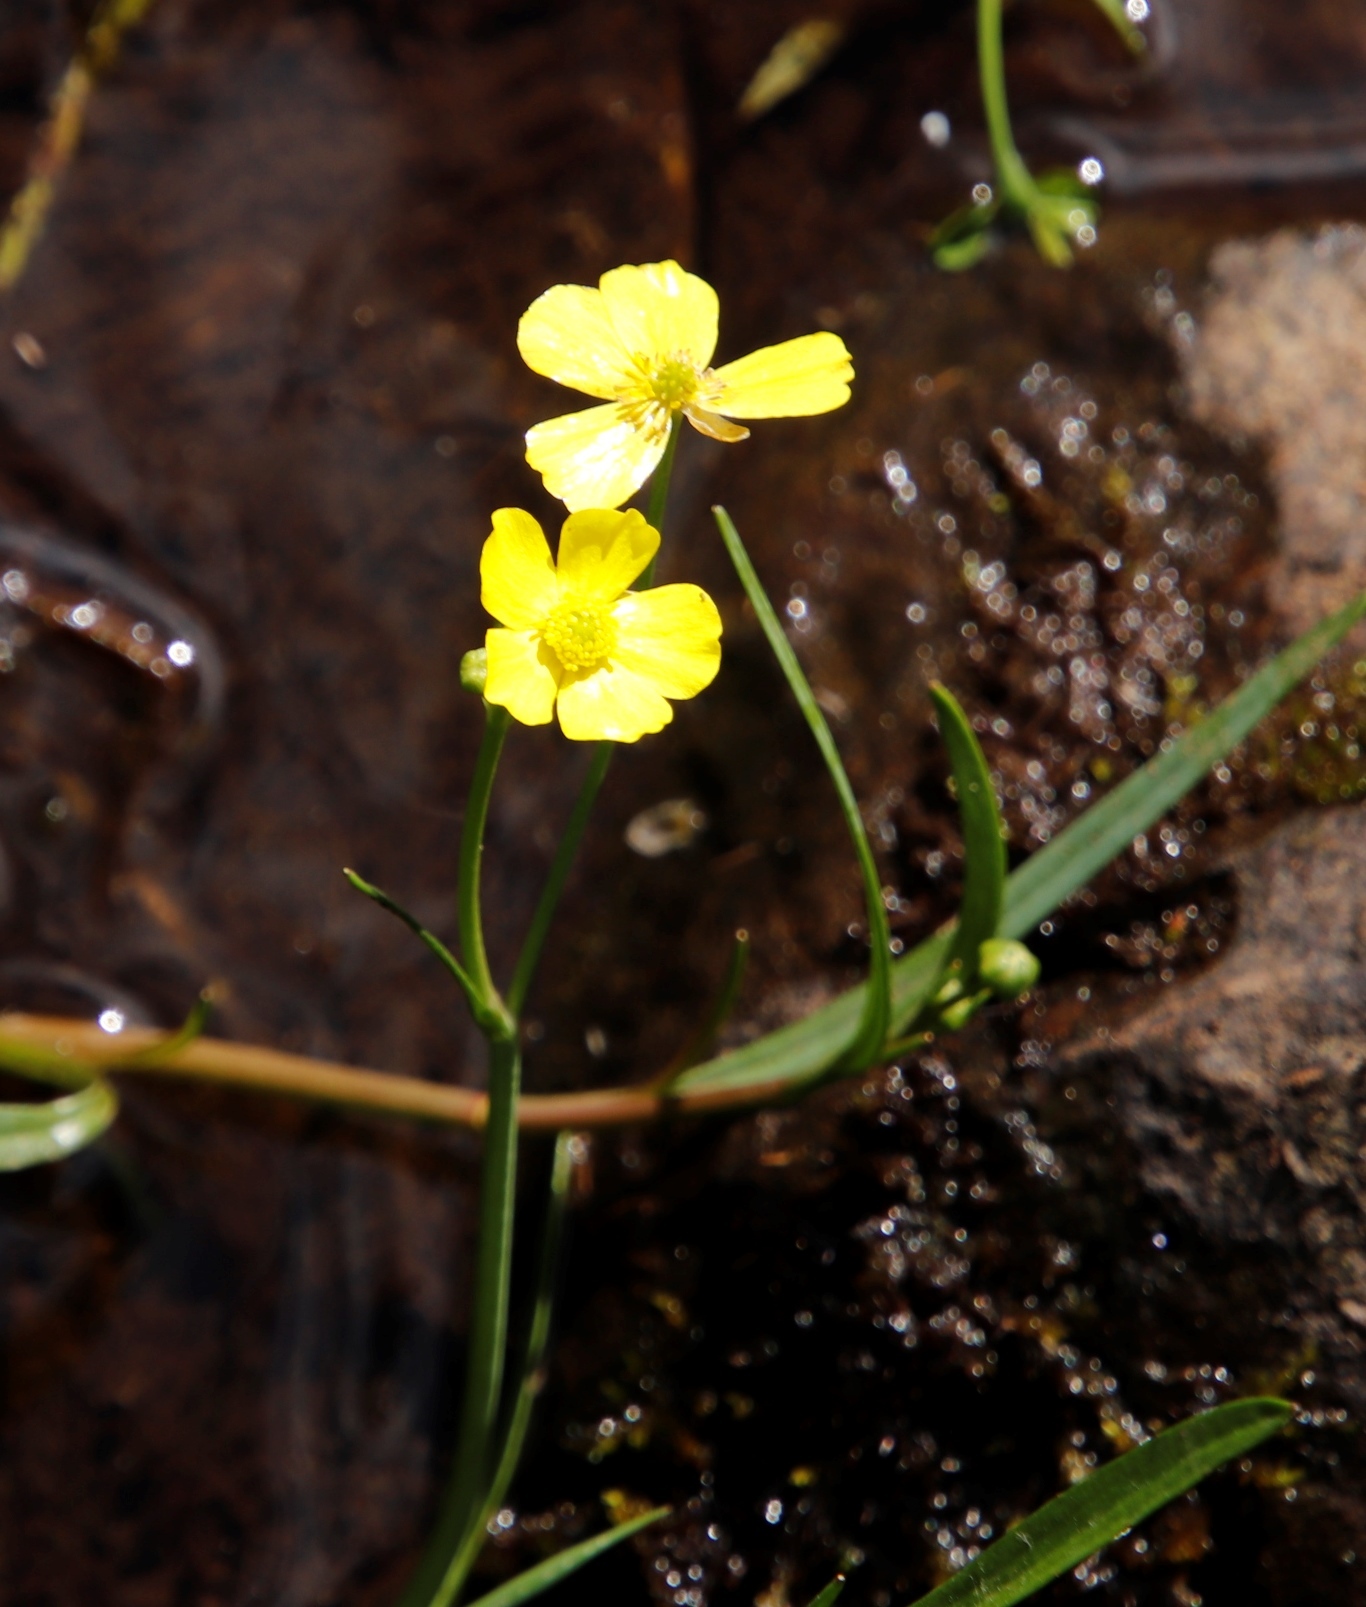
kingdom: Plantae
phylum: Tracheophyta
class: Magnoliopsida
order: Ranunculales
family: Ranunculaceae
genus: Ranunculus
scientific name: Ranunculus flammula
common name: Lesser spearwort
